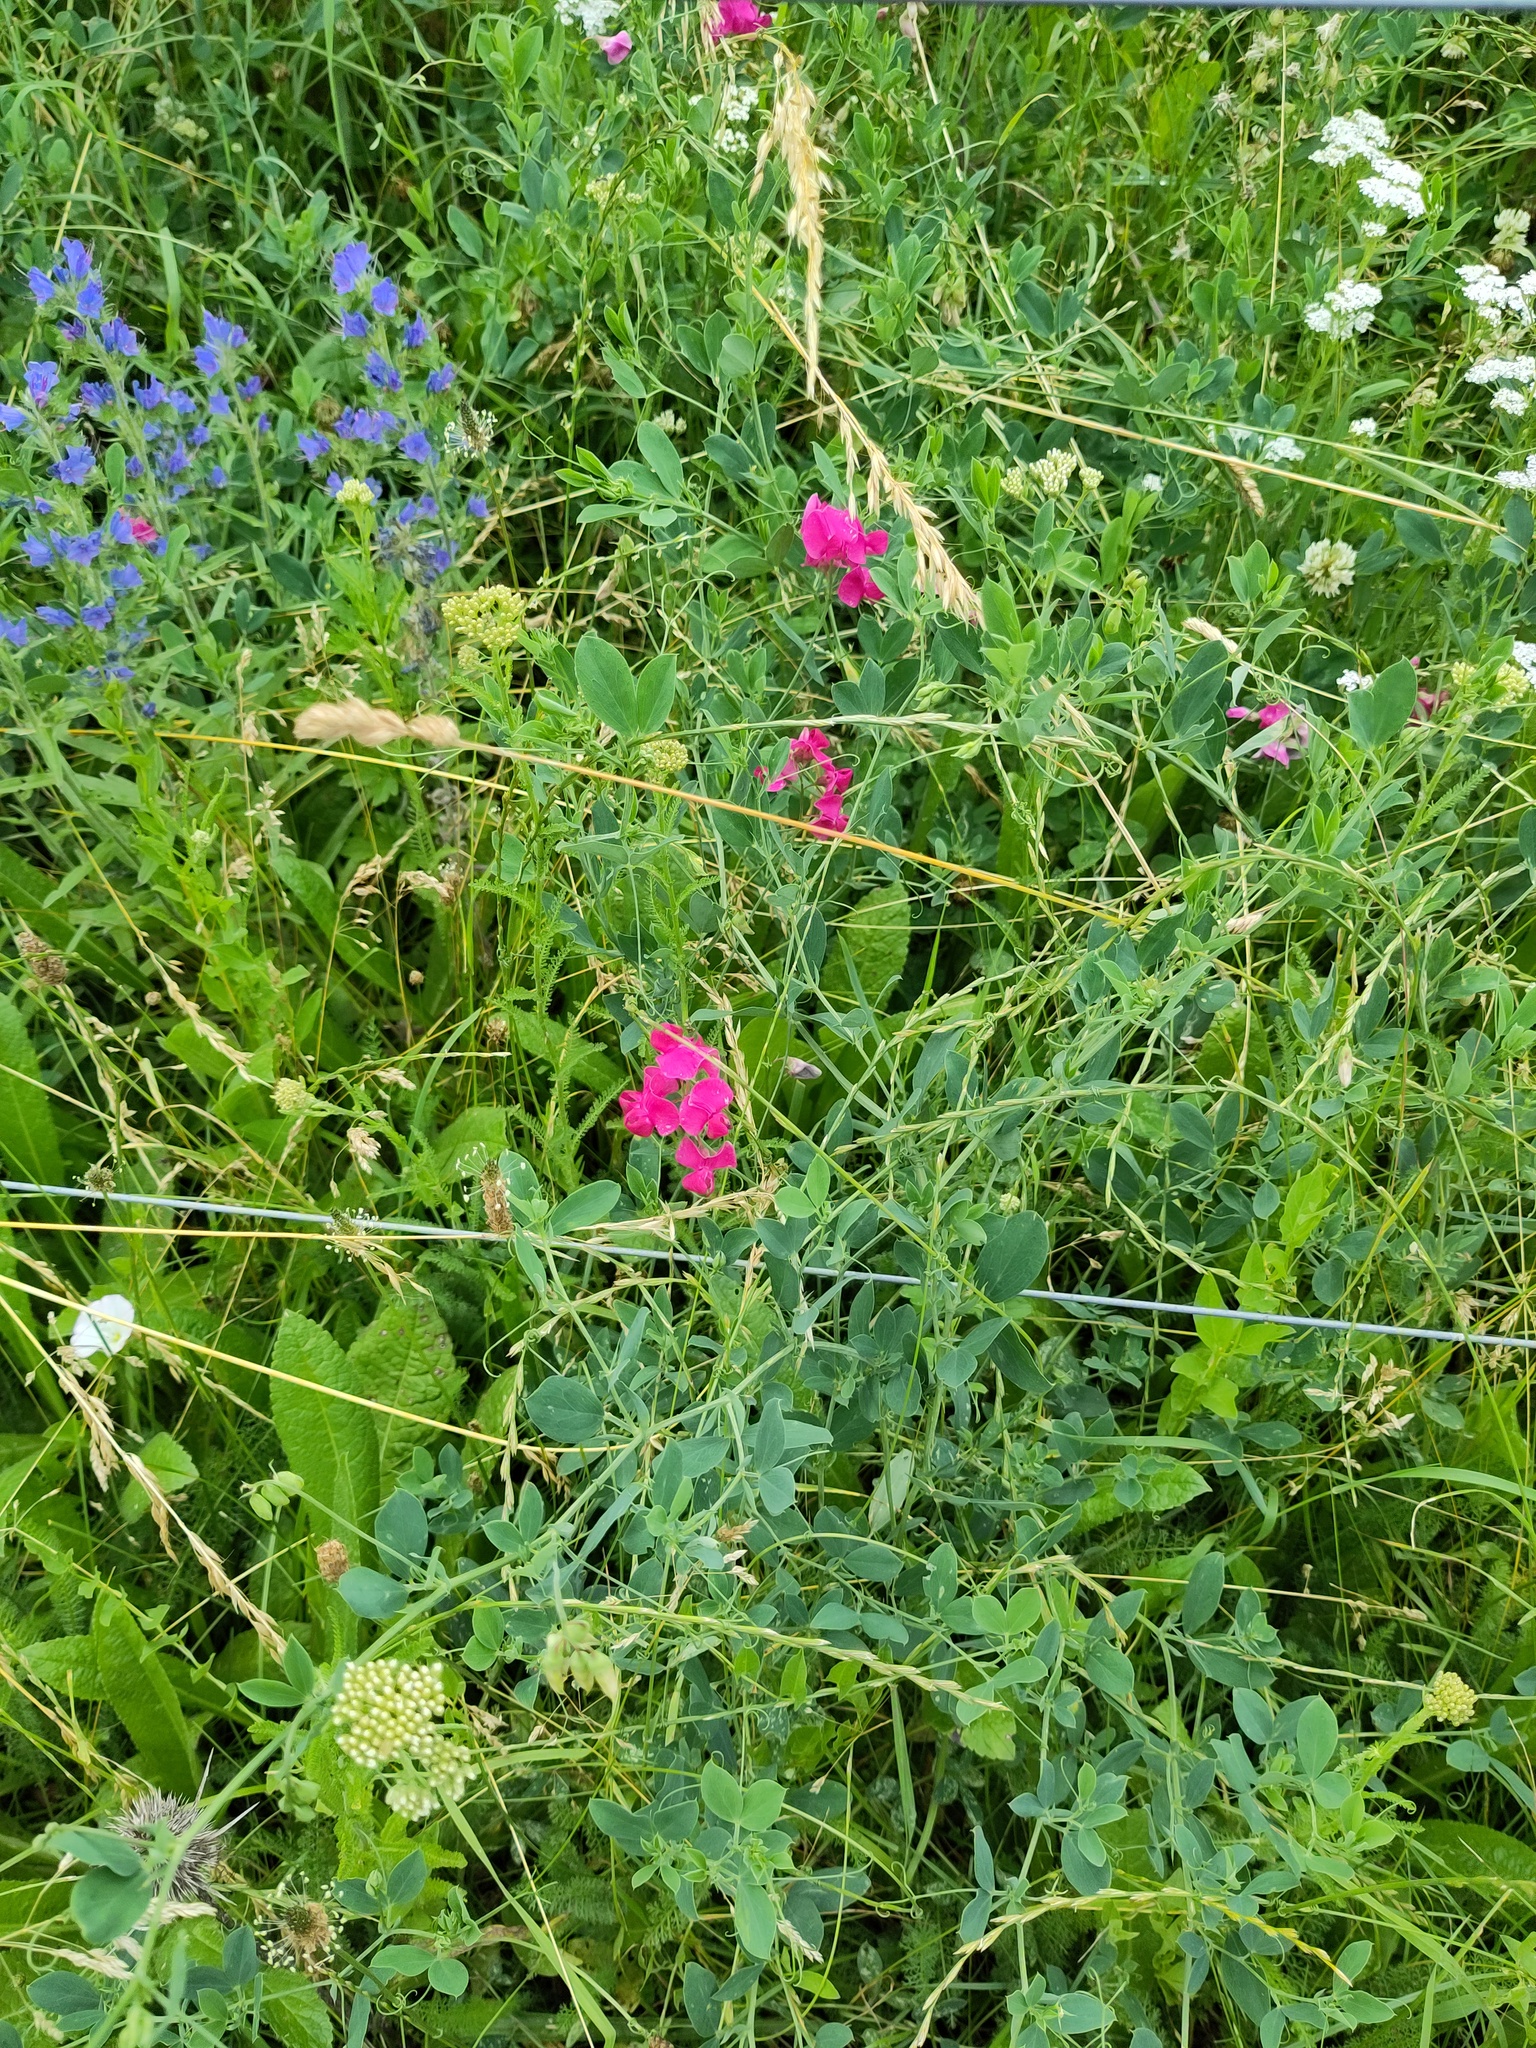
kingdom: Plantae
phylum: Tracheophyta
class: Magnoliopsida
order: Fabales
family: Fabaceae
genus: Lathyrus
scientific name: Lathyrus tuberosus
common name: Tuberous pea
